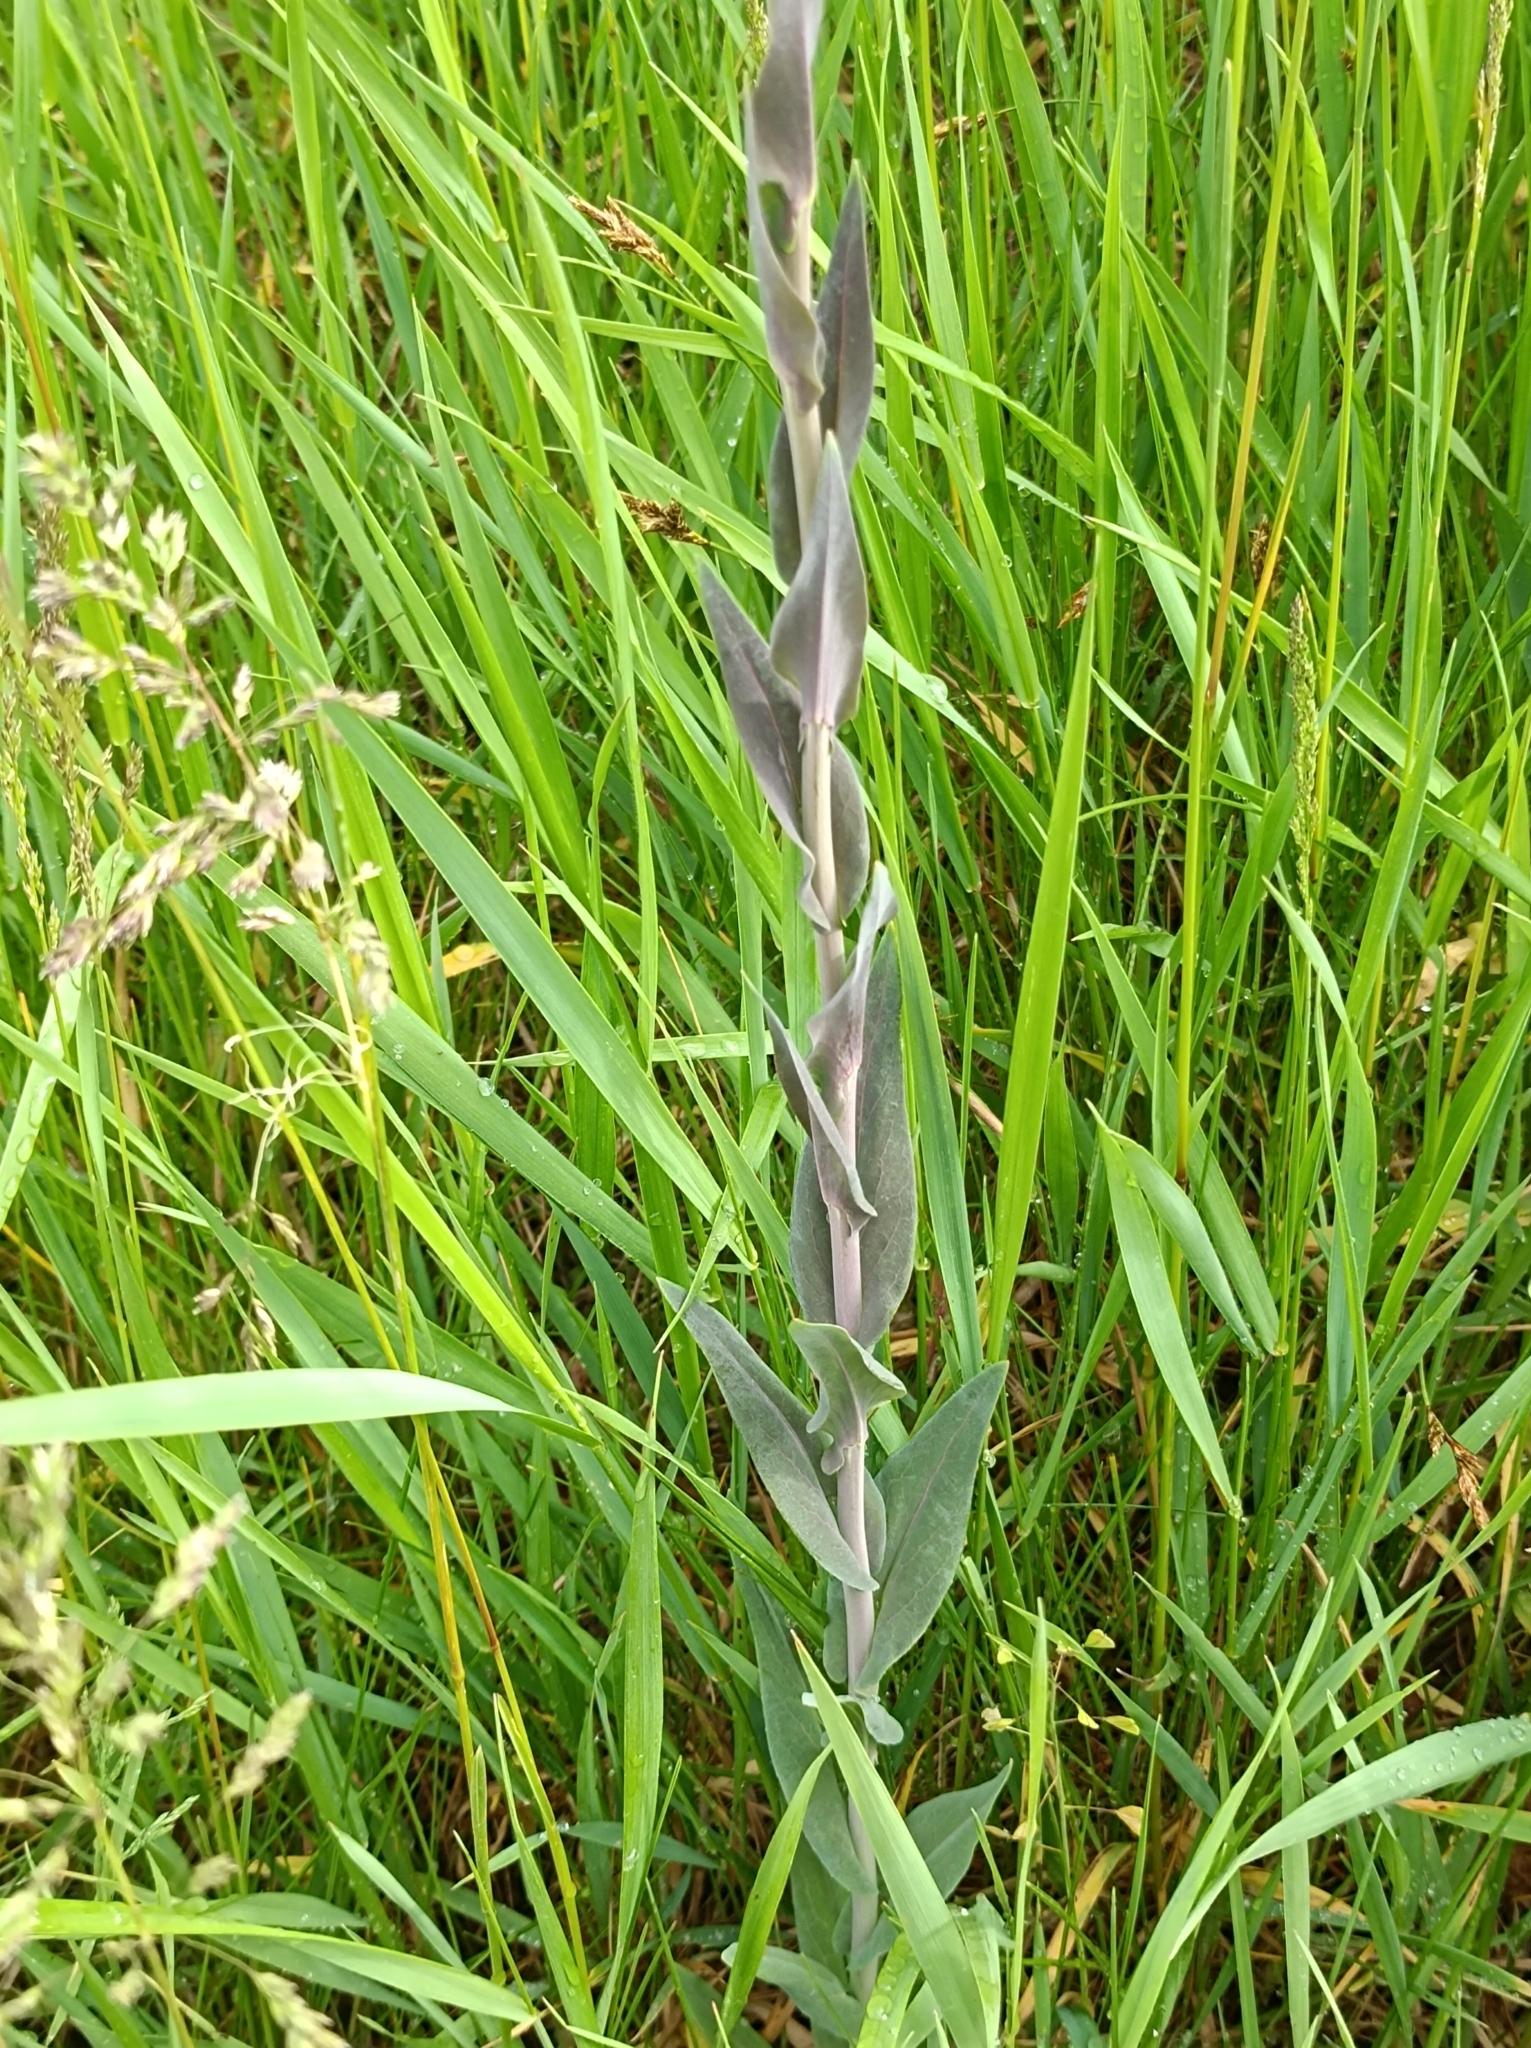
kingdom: Plantae
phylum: Tracheophyta
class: Magnoliopsida
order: Brassicales
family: Brassicaceae
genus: Turritis
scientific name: Turritis glabra
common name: Tower rockcress
